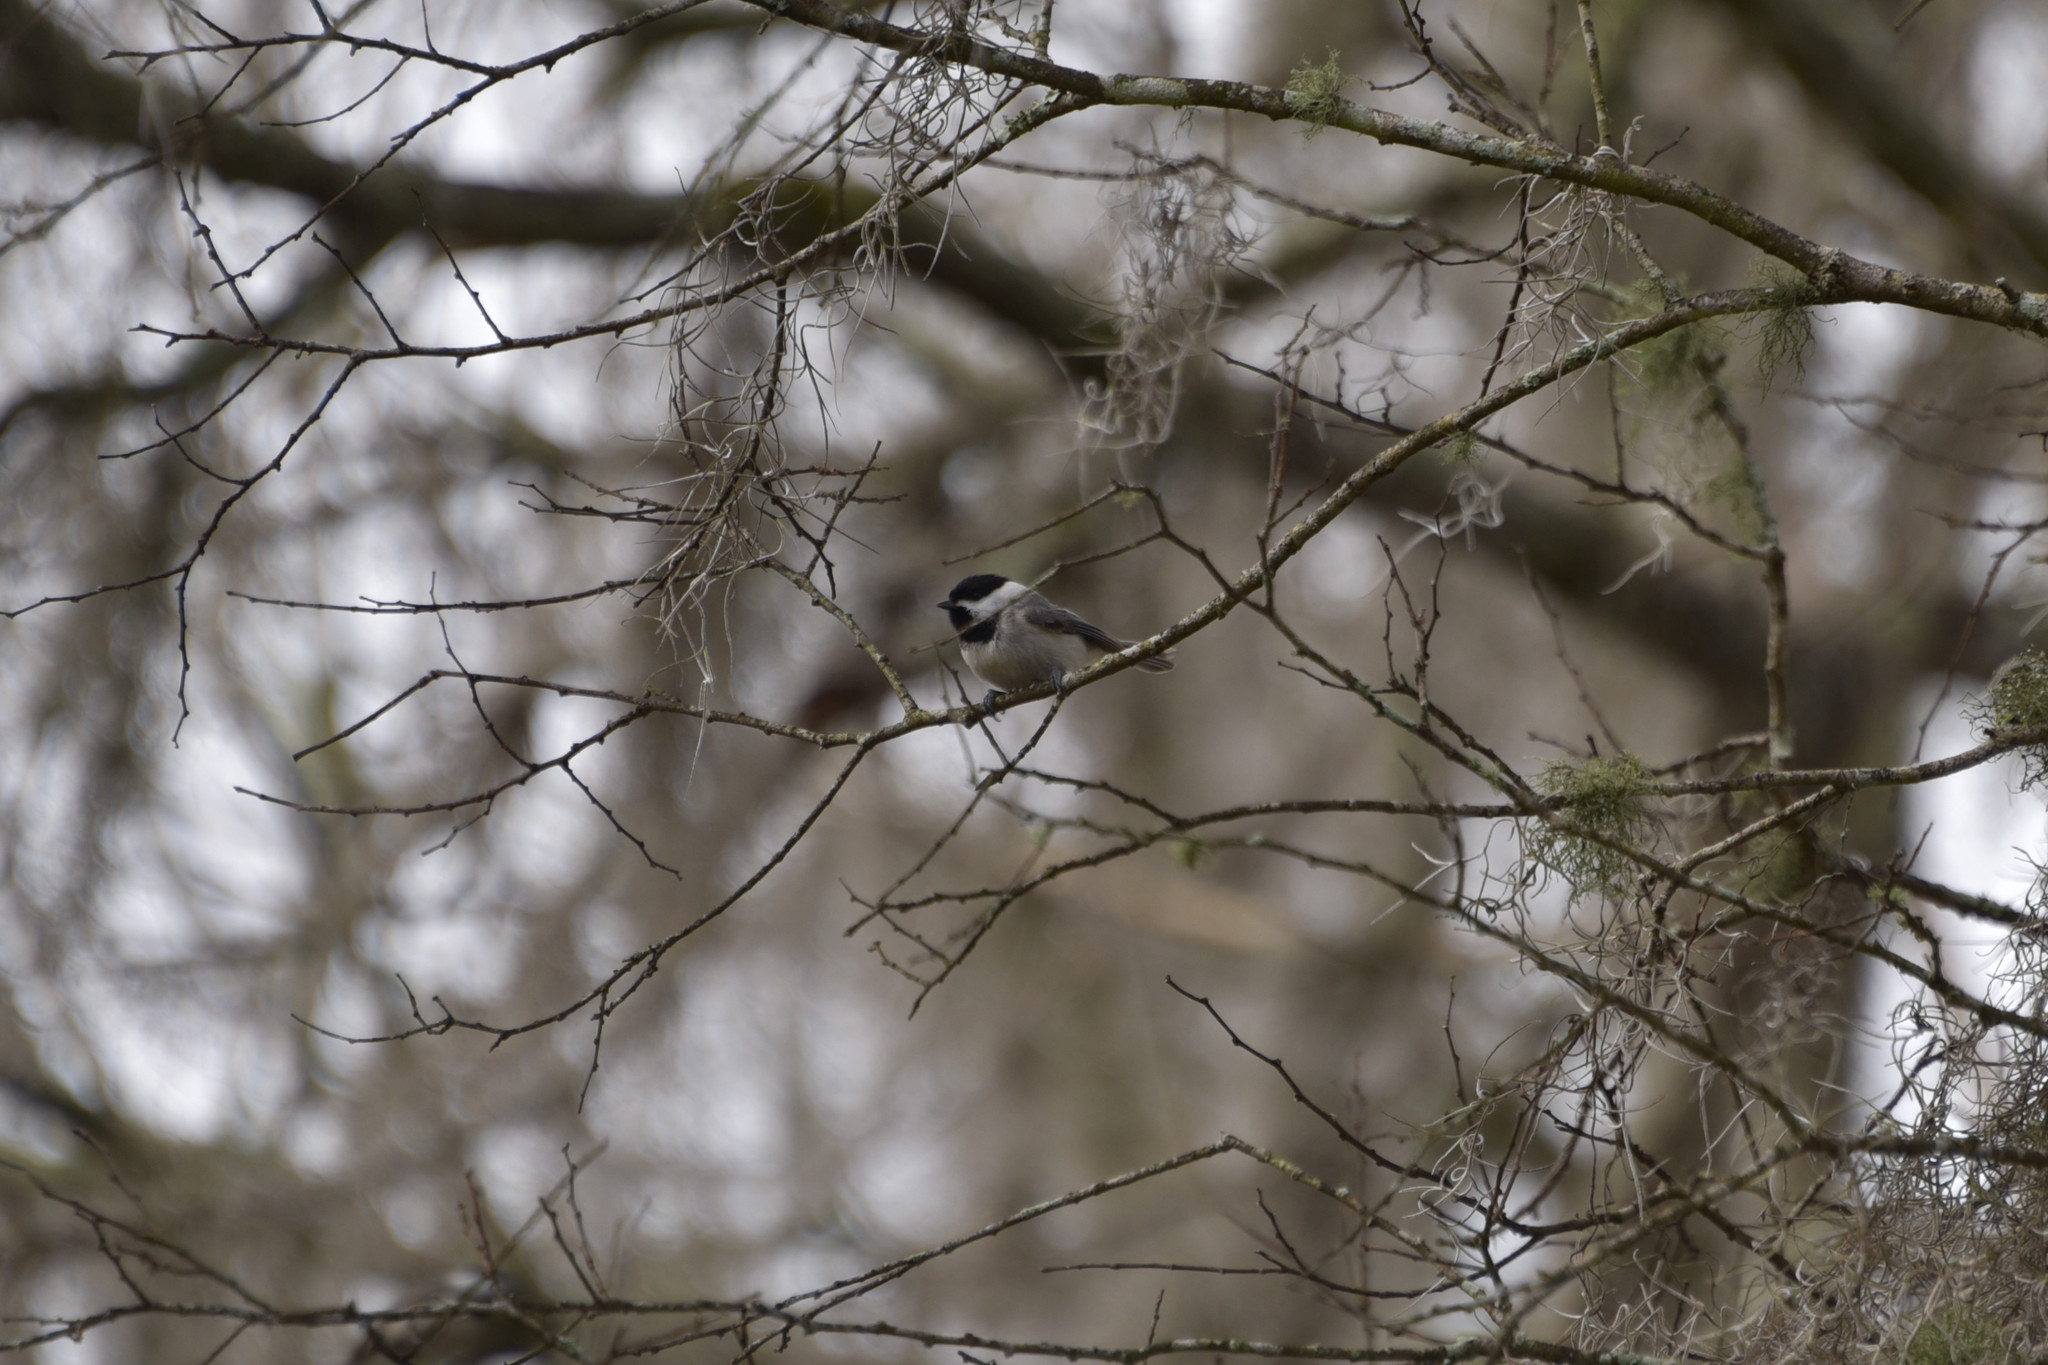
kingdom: Animalia
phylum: Chordata
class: Aves
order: Passeriformes
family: Paridae
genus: Poecile
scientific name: Poecile carolinensis
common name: Carolina chickadee
